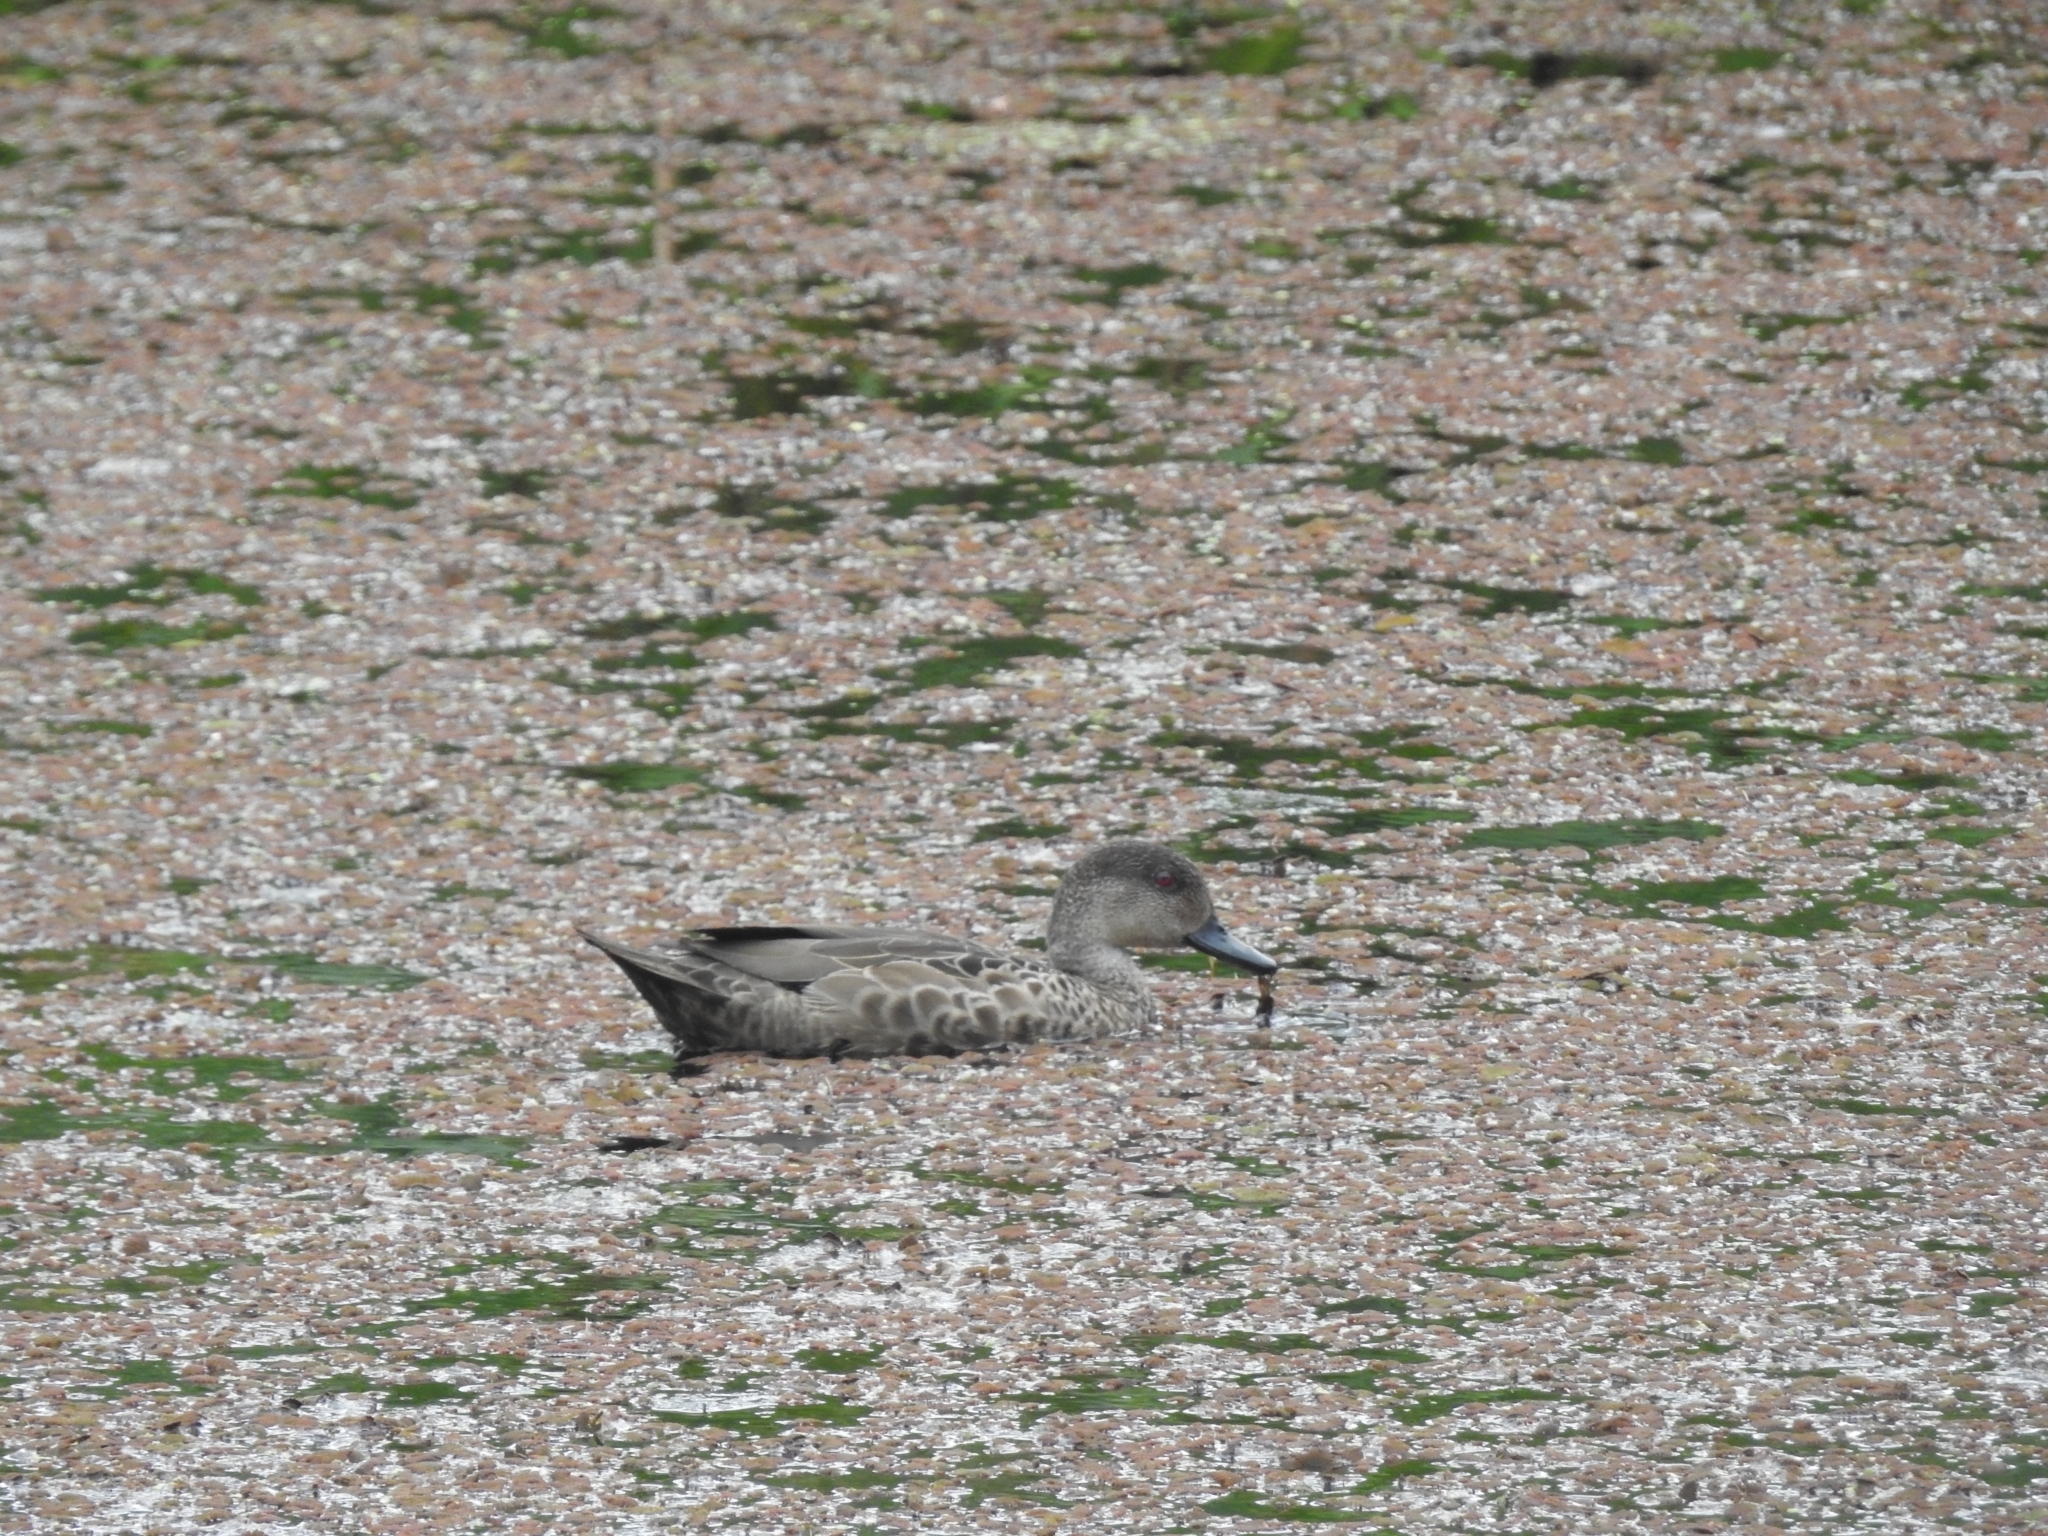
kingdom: Animalia
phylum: Chordata
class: Aves
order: Anseriformes
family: Anatidae
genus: Anas
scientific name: Anas gracilis
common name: Grey teal
